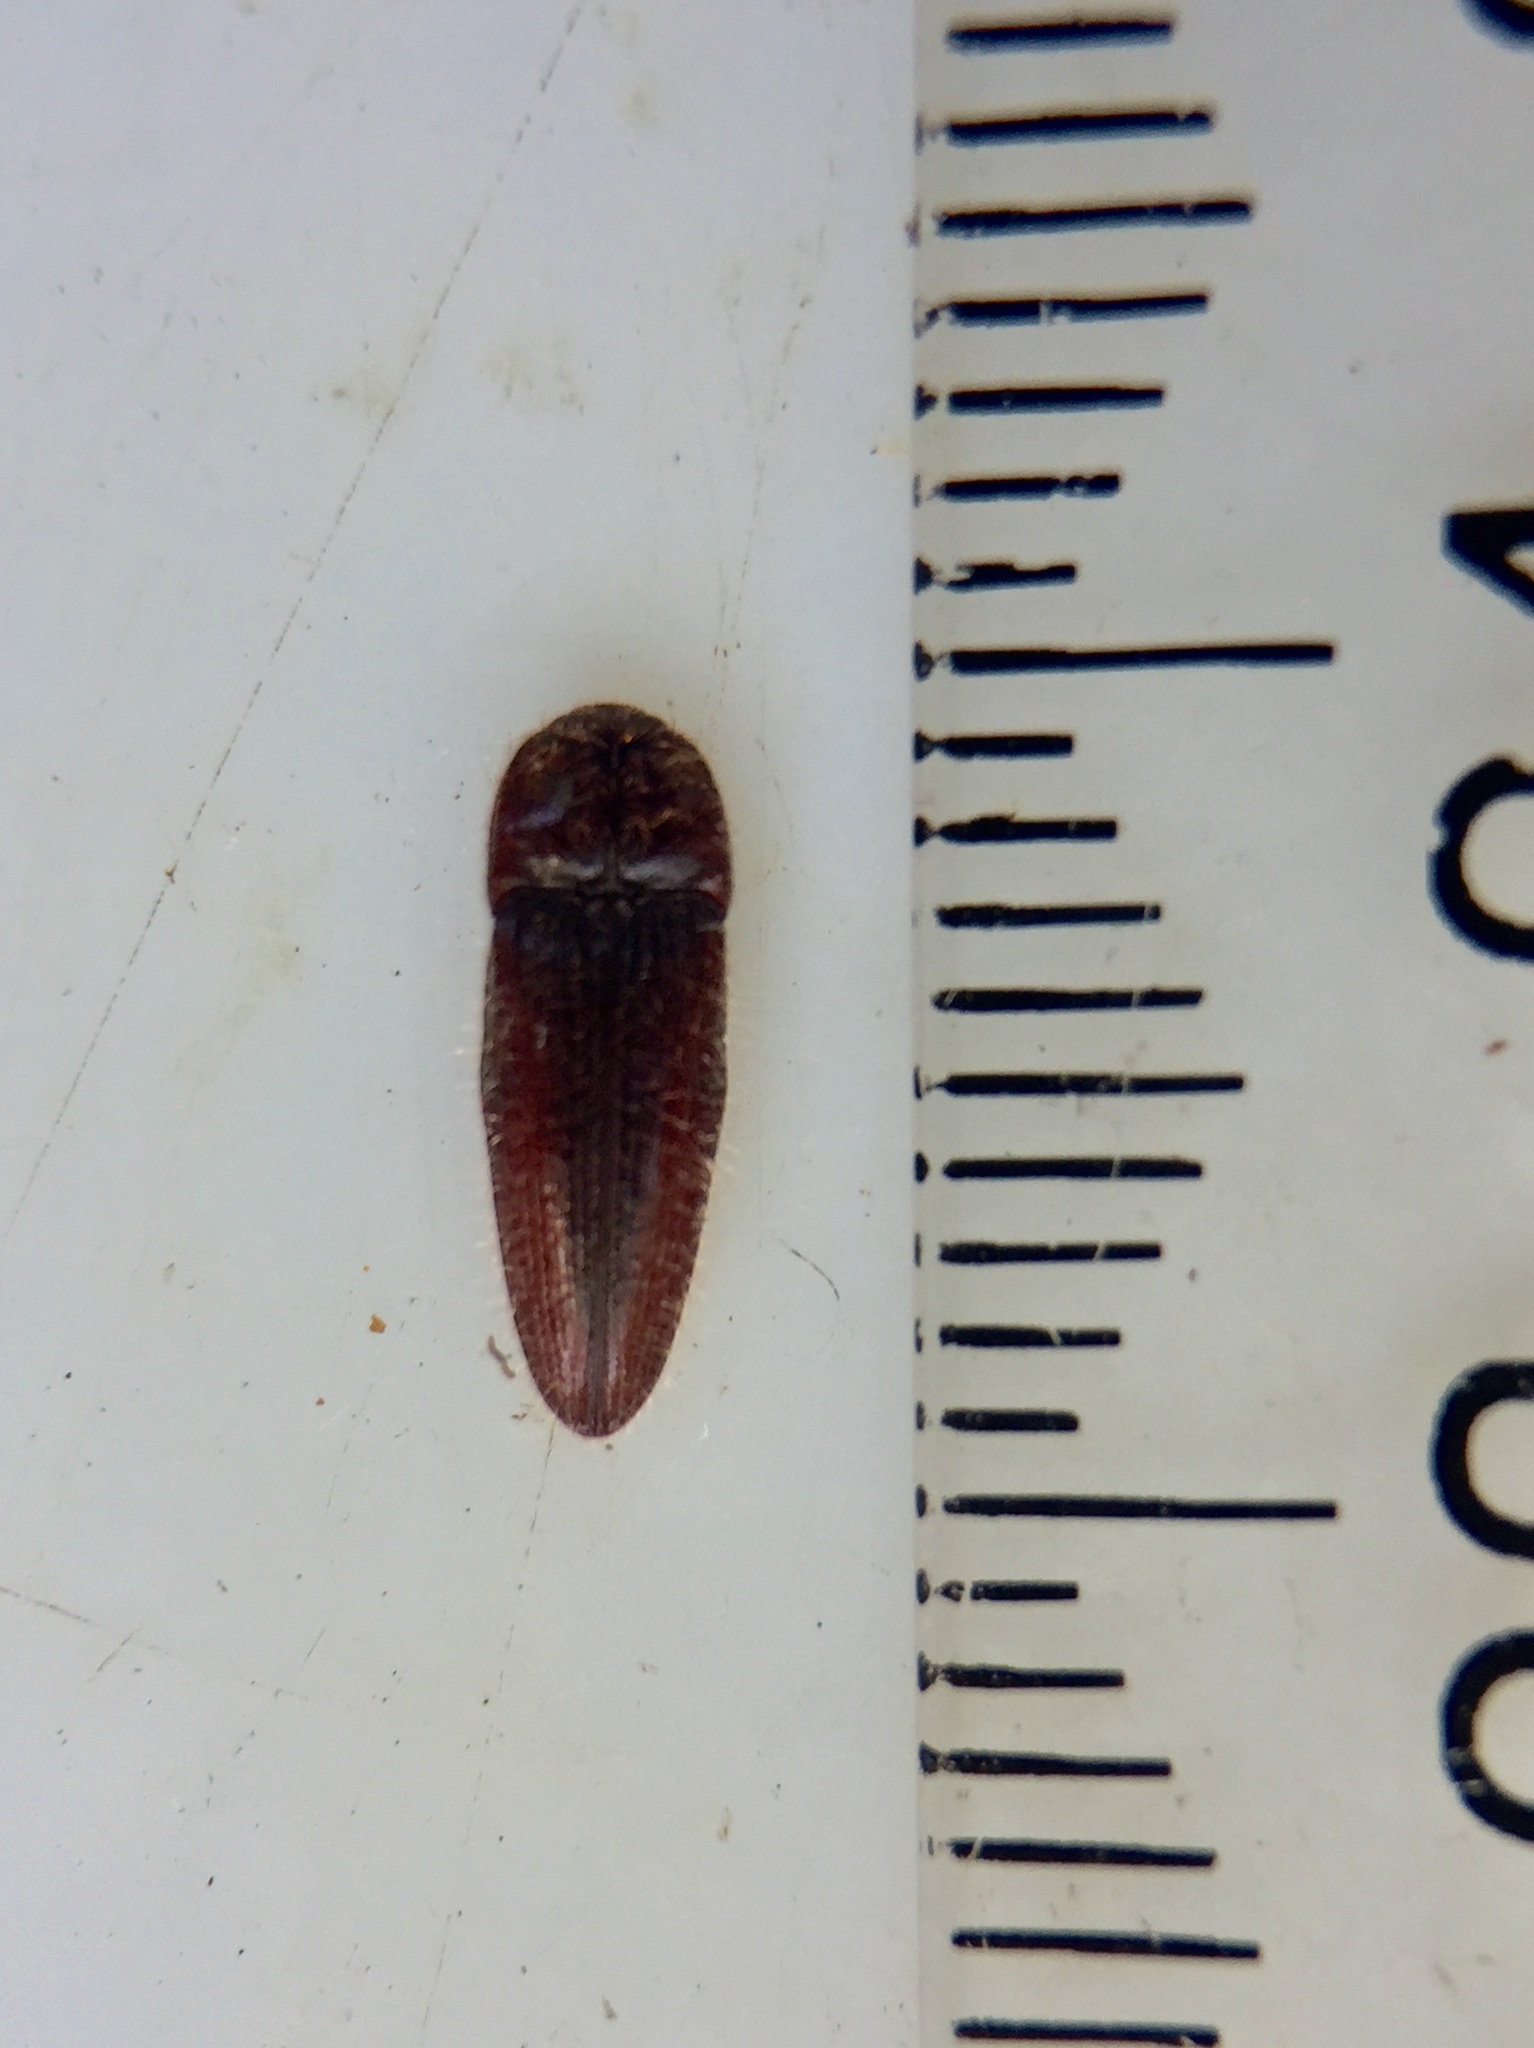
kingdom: Animalia
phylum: Arthropoda
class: Insecta
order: Coleoptera
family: Elateridae
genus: Hapatesus
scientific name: Hapatesus electus
